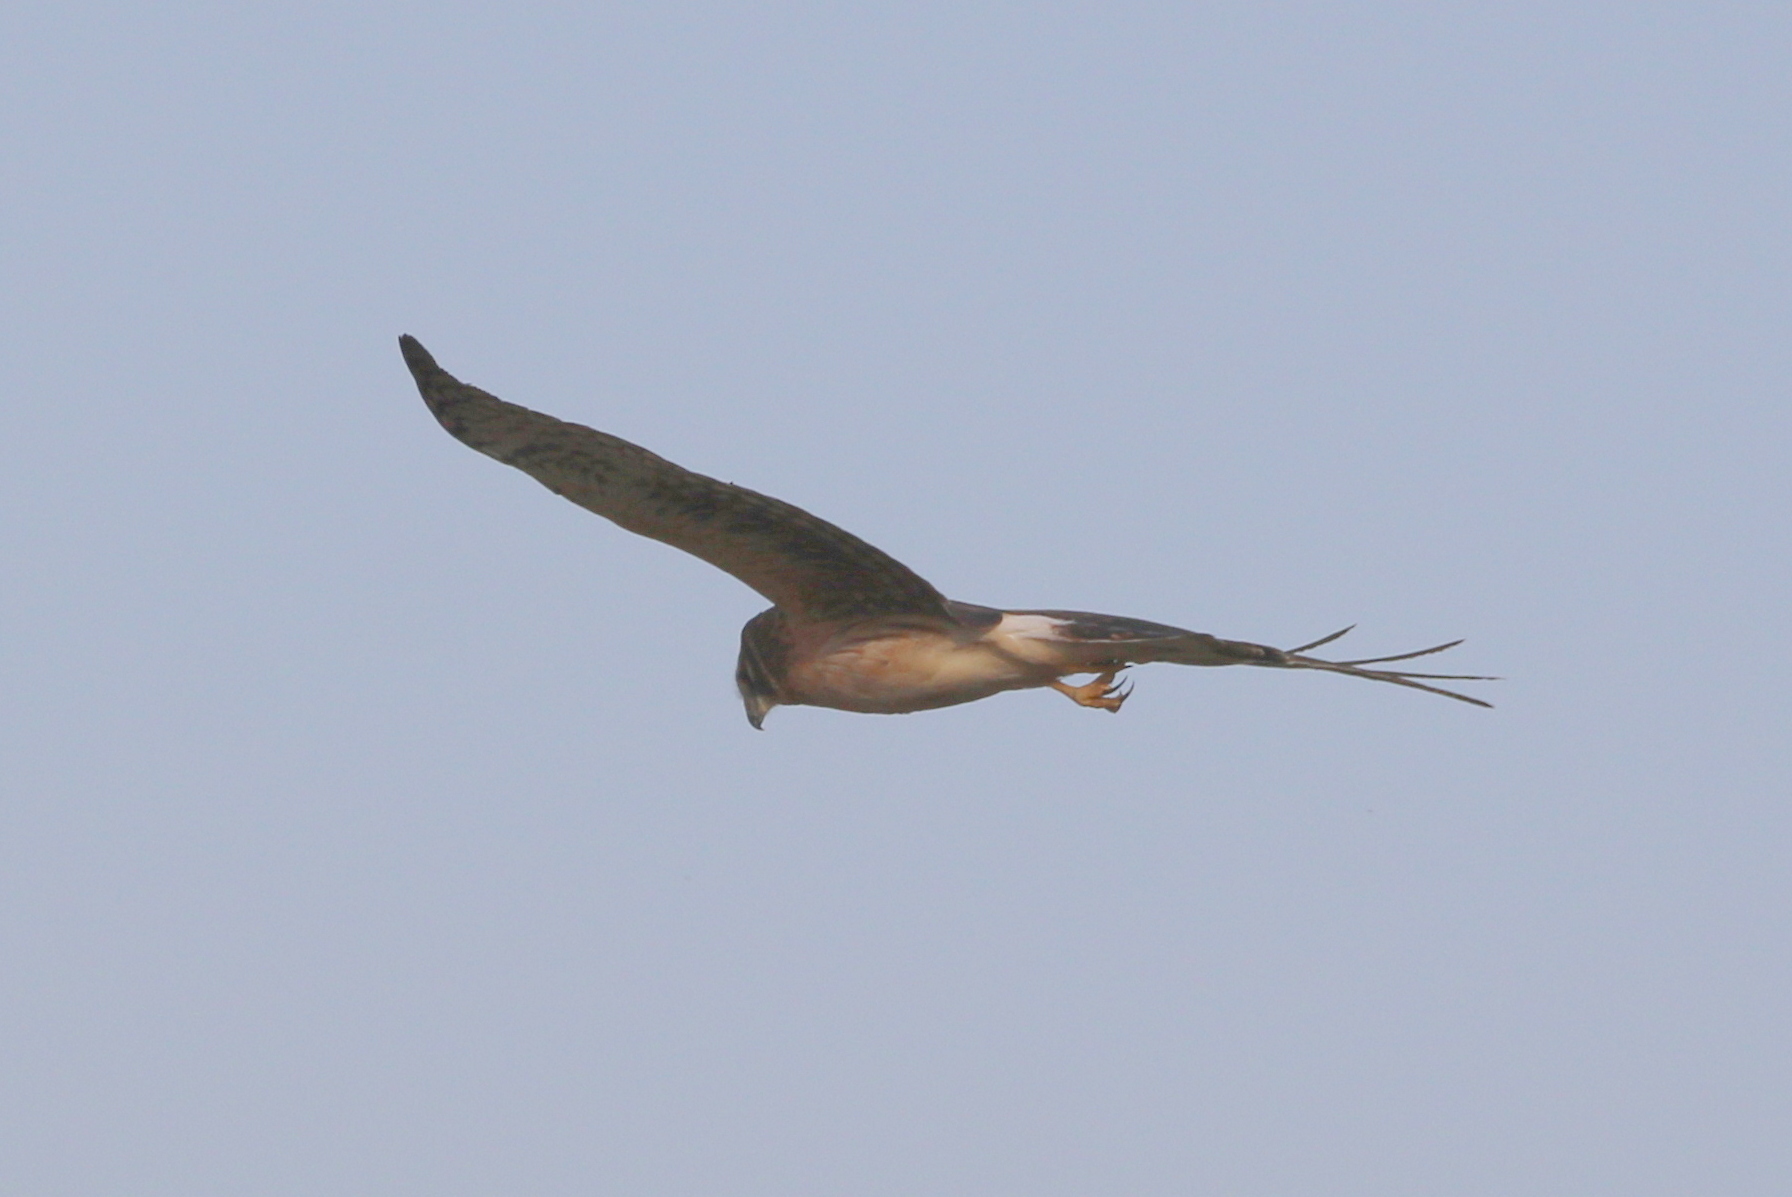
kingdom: Animalia
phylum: Chordata
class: Aves
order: Accipitriformes
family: Accipitridae
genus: Circus
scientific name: Circus cyaneus
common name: Hen harrier
